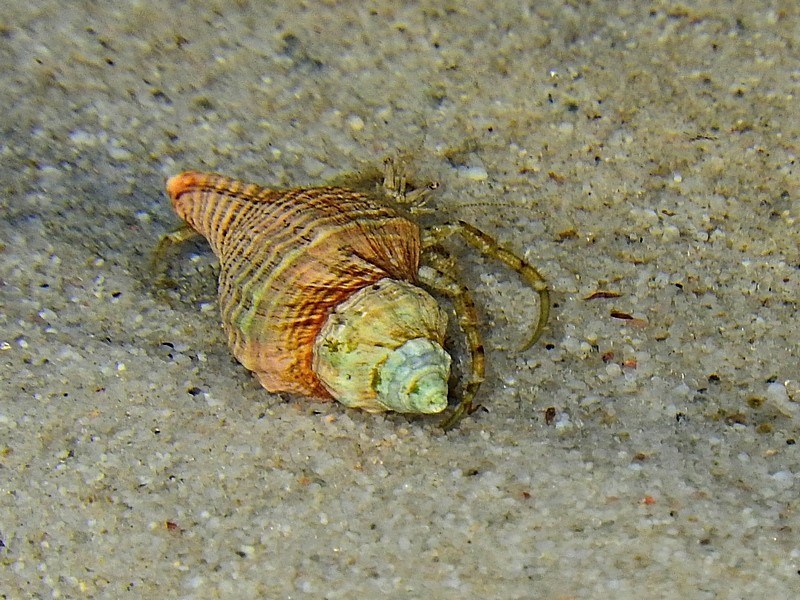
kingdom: Animalia
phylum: Arthropoda
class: Malacostraca
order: Decapoda
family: Diogenidae
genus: Diogenes
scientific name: Diogenes senex
